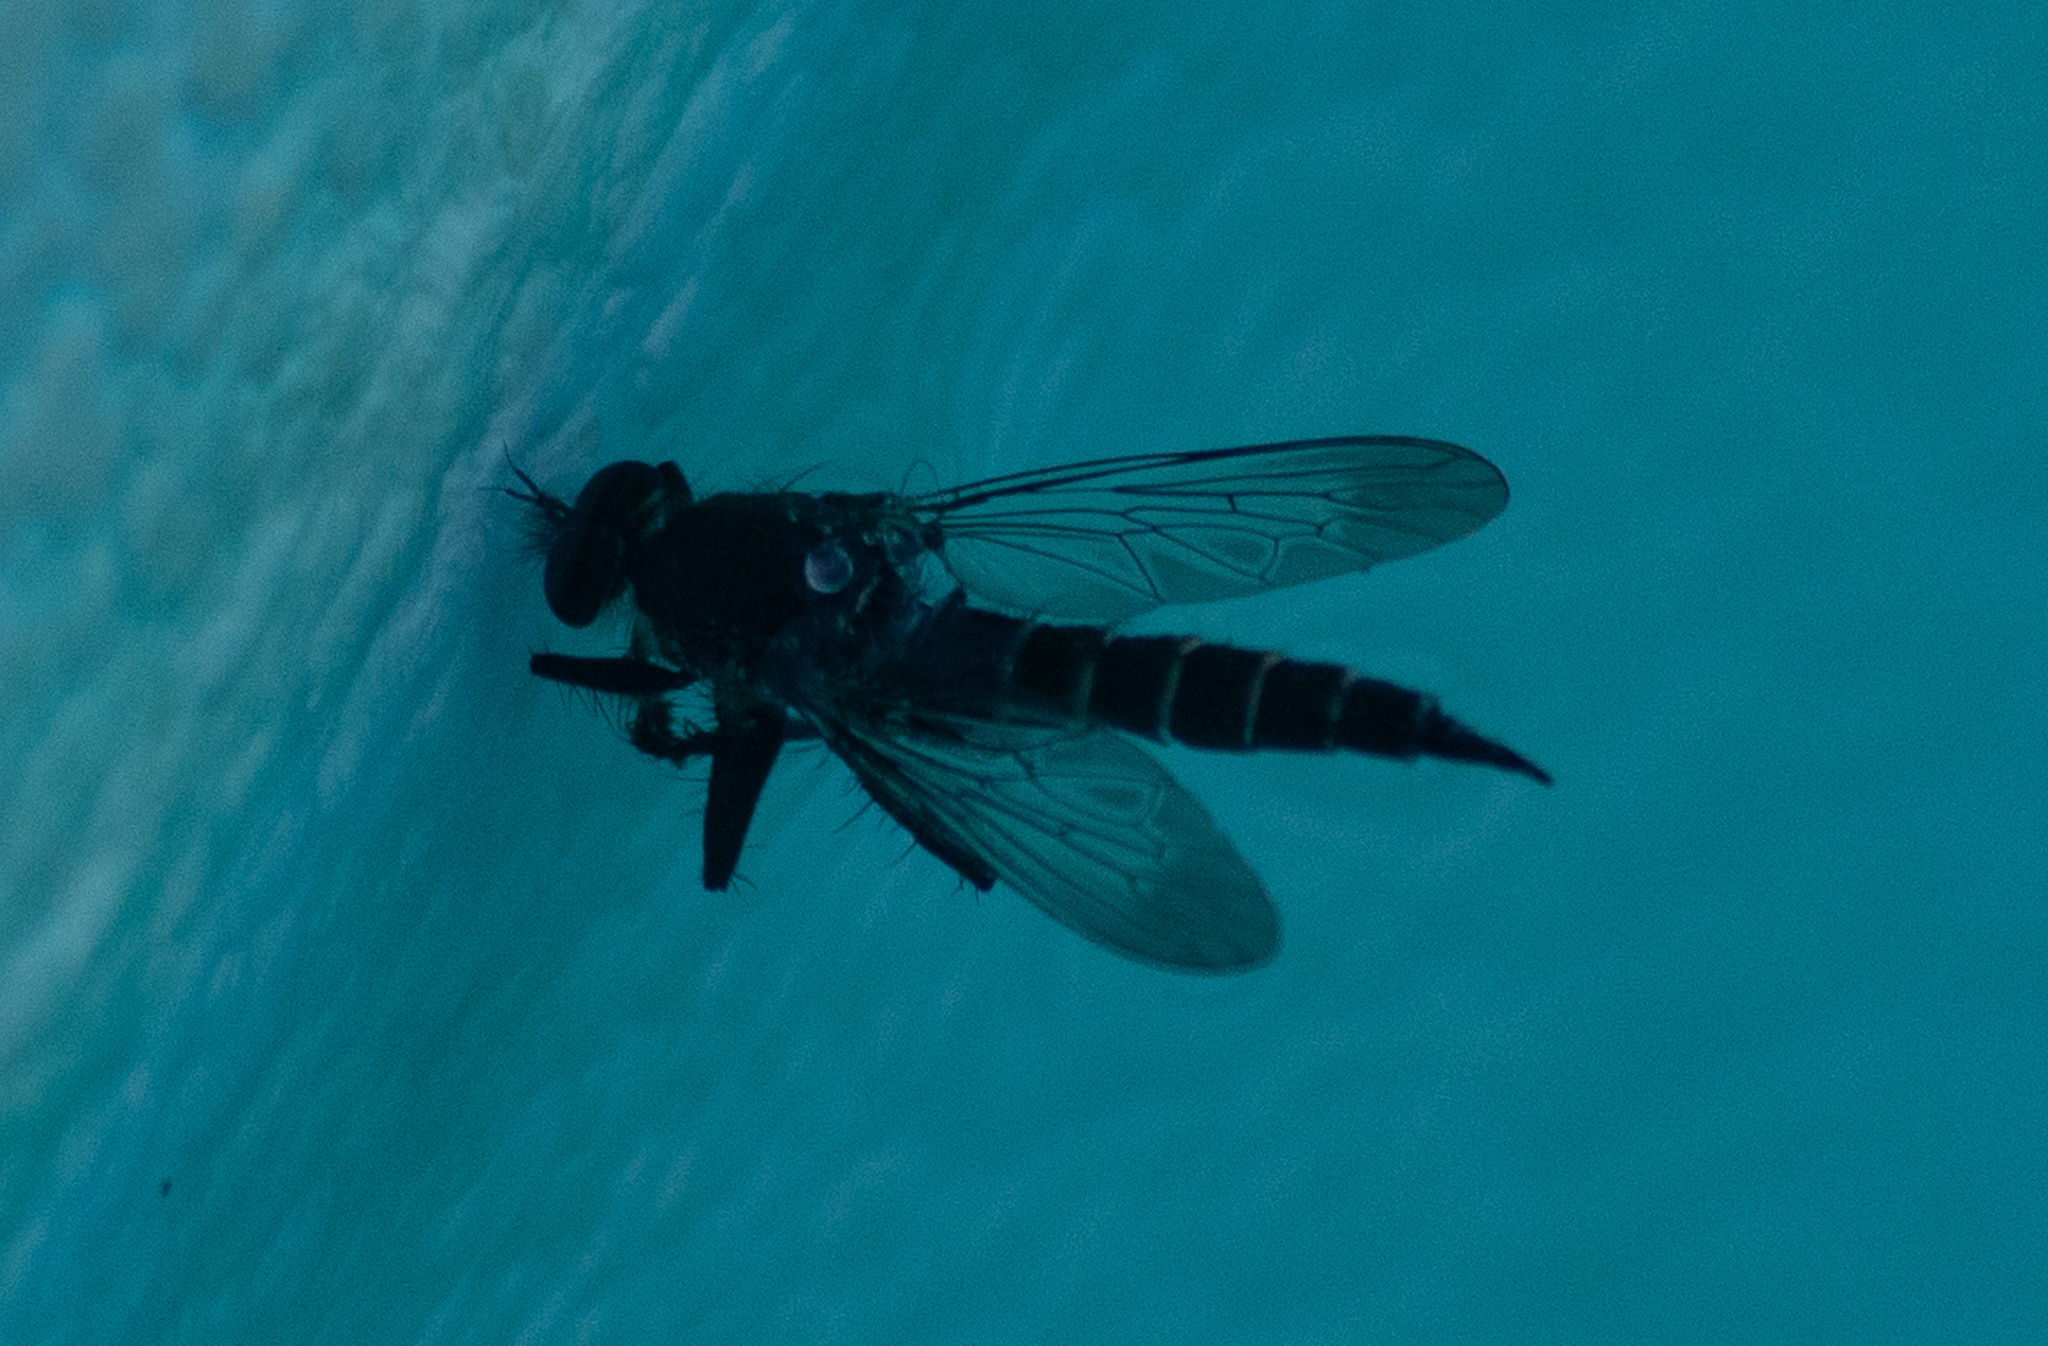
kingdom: Animalia
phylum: Arthropoda
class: Insecta
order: Diptera
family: Asilidae
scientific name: Asilidae
